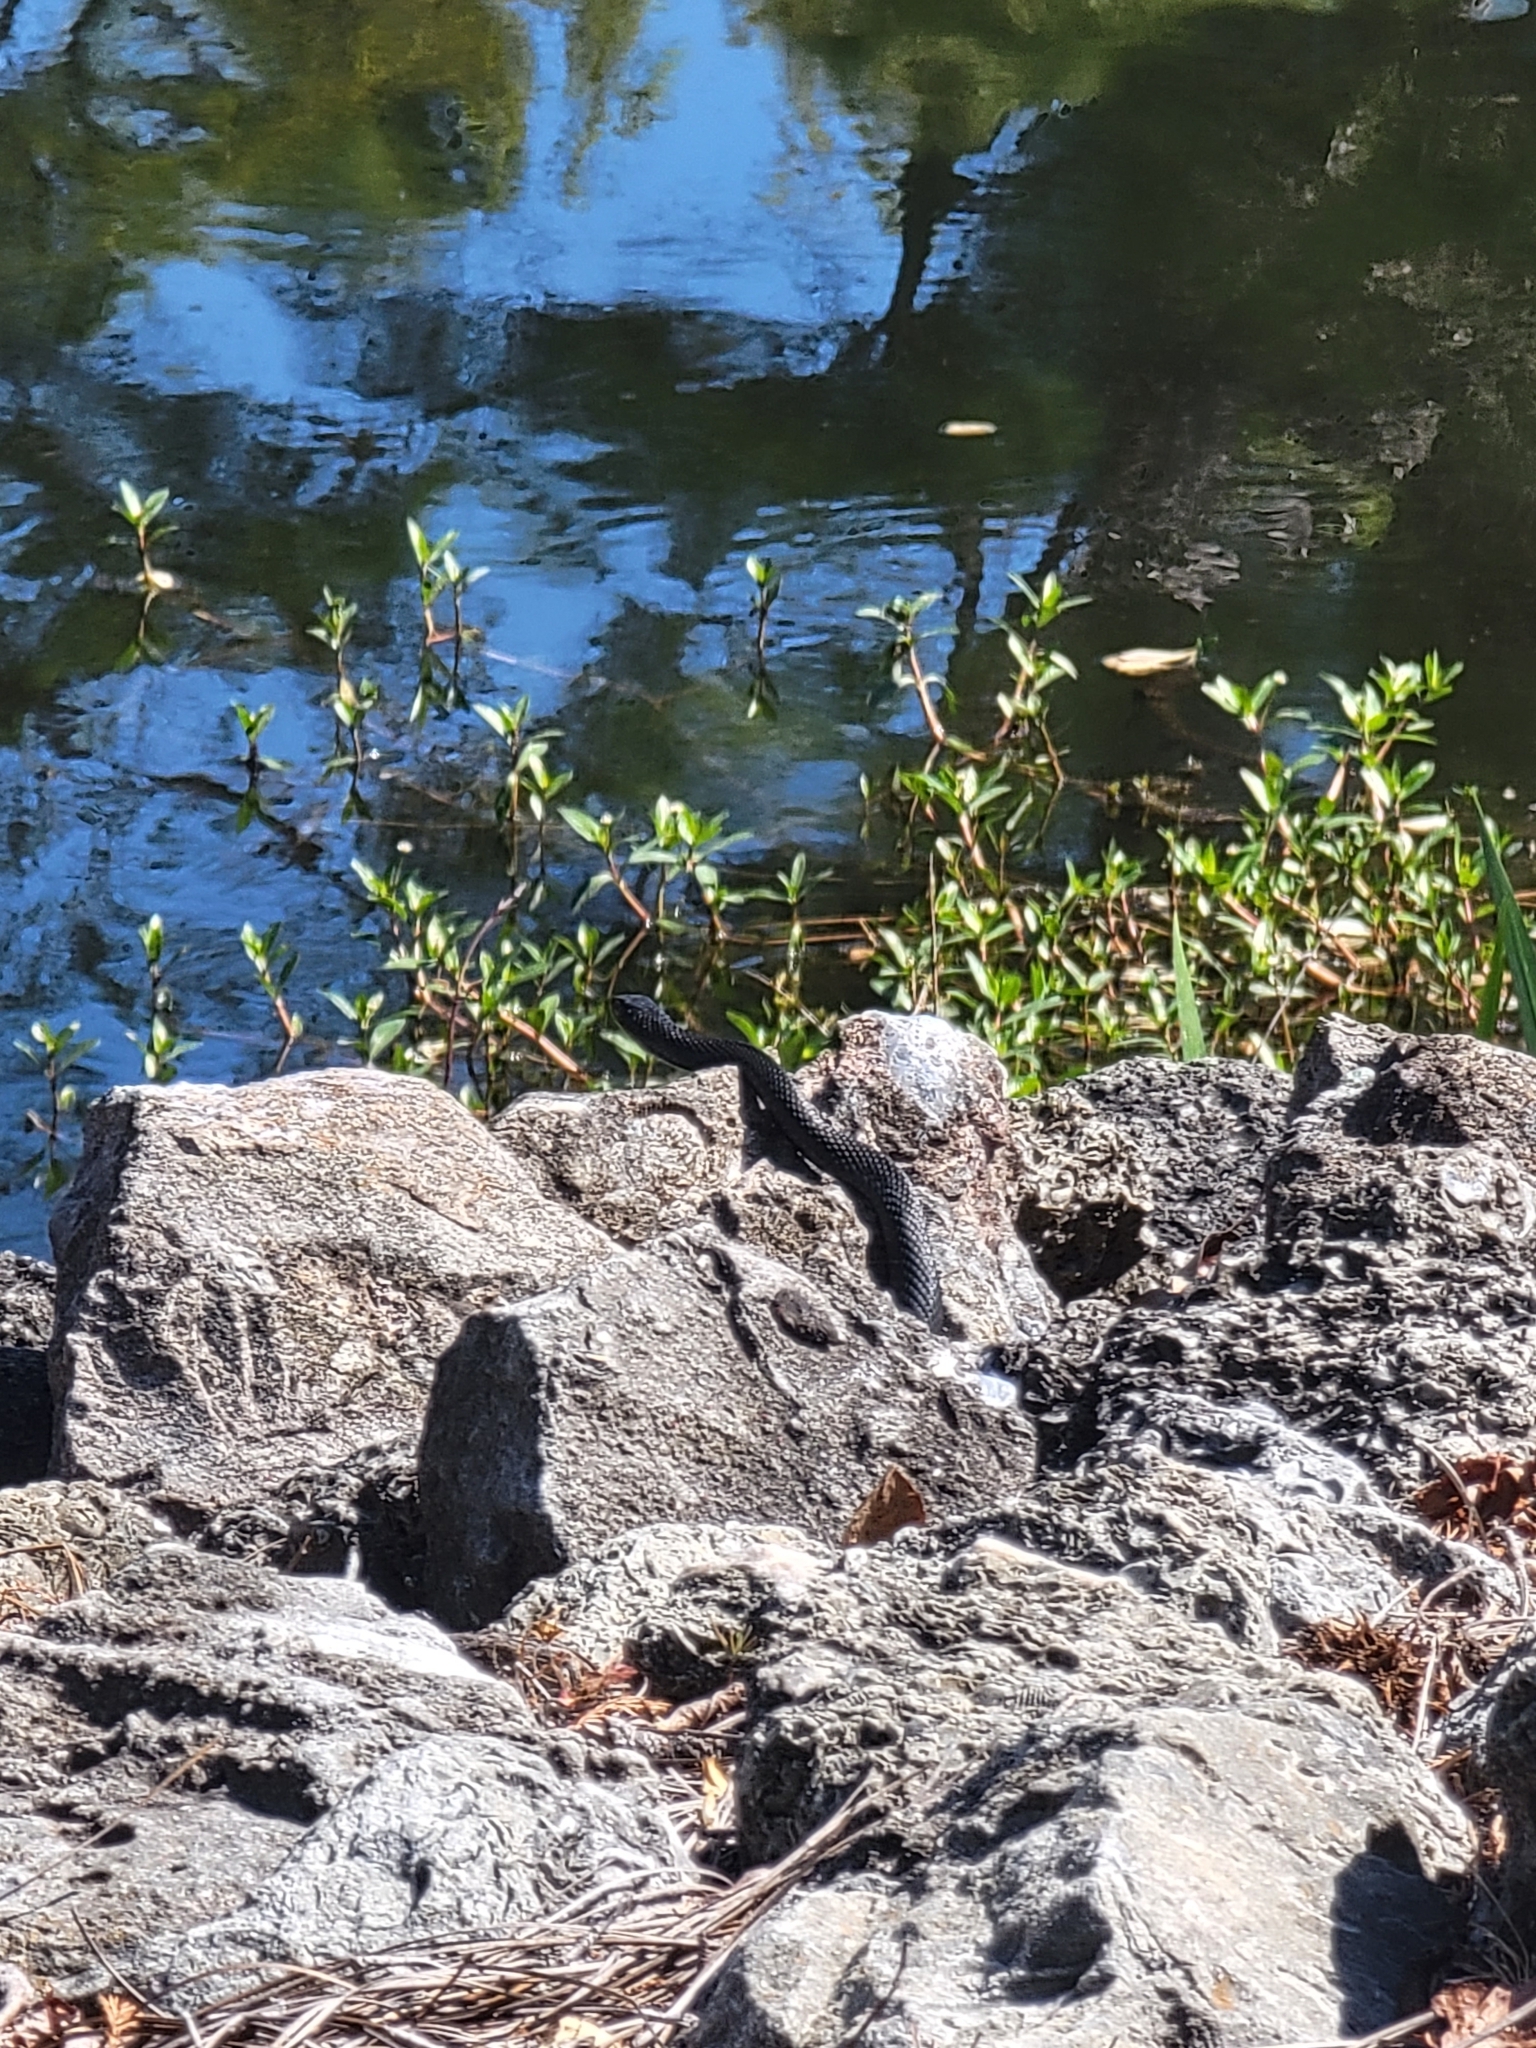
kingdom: Animalia
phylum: Chordata
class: Squamata
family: Colubridae
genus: Coluber
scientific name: Coluber constrictor
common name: Eastern racer
